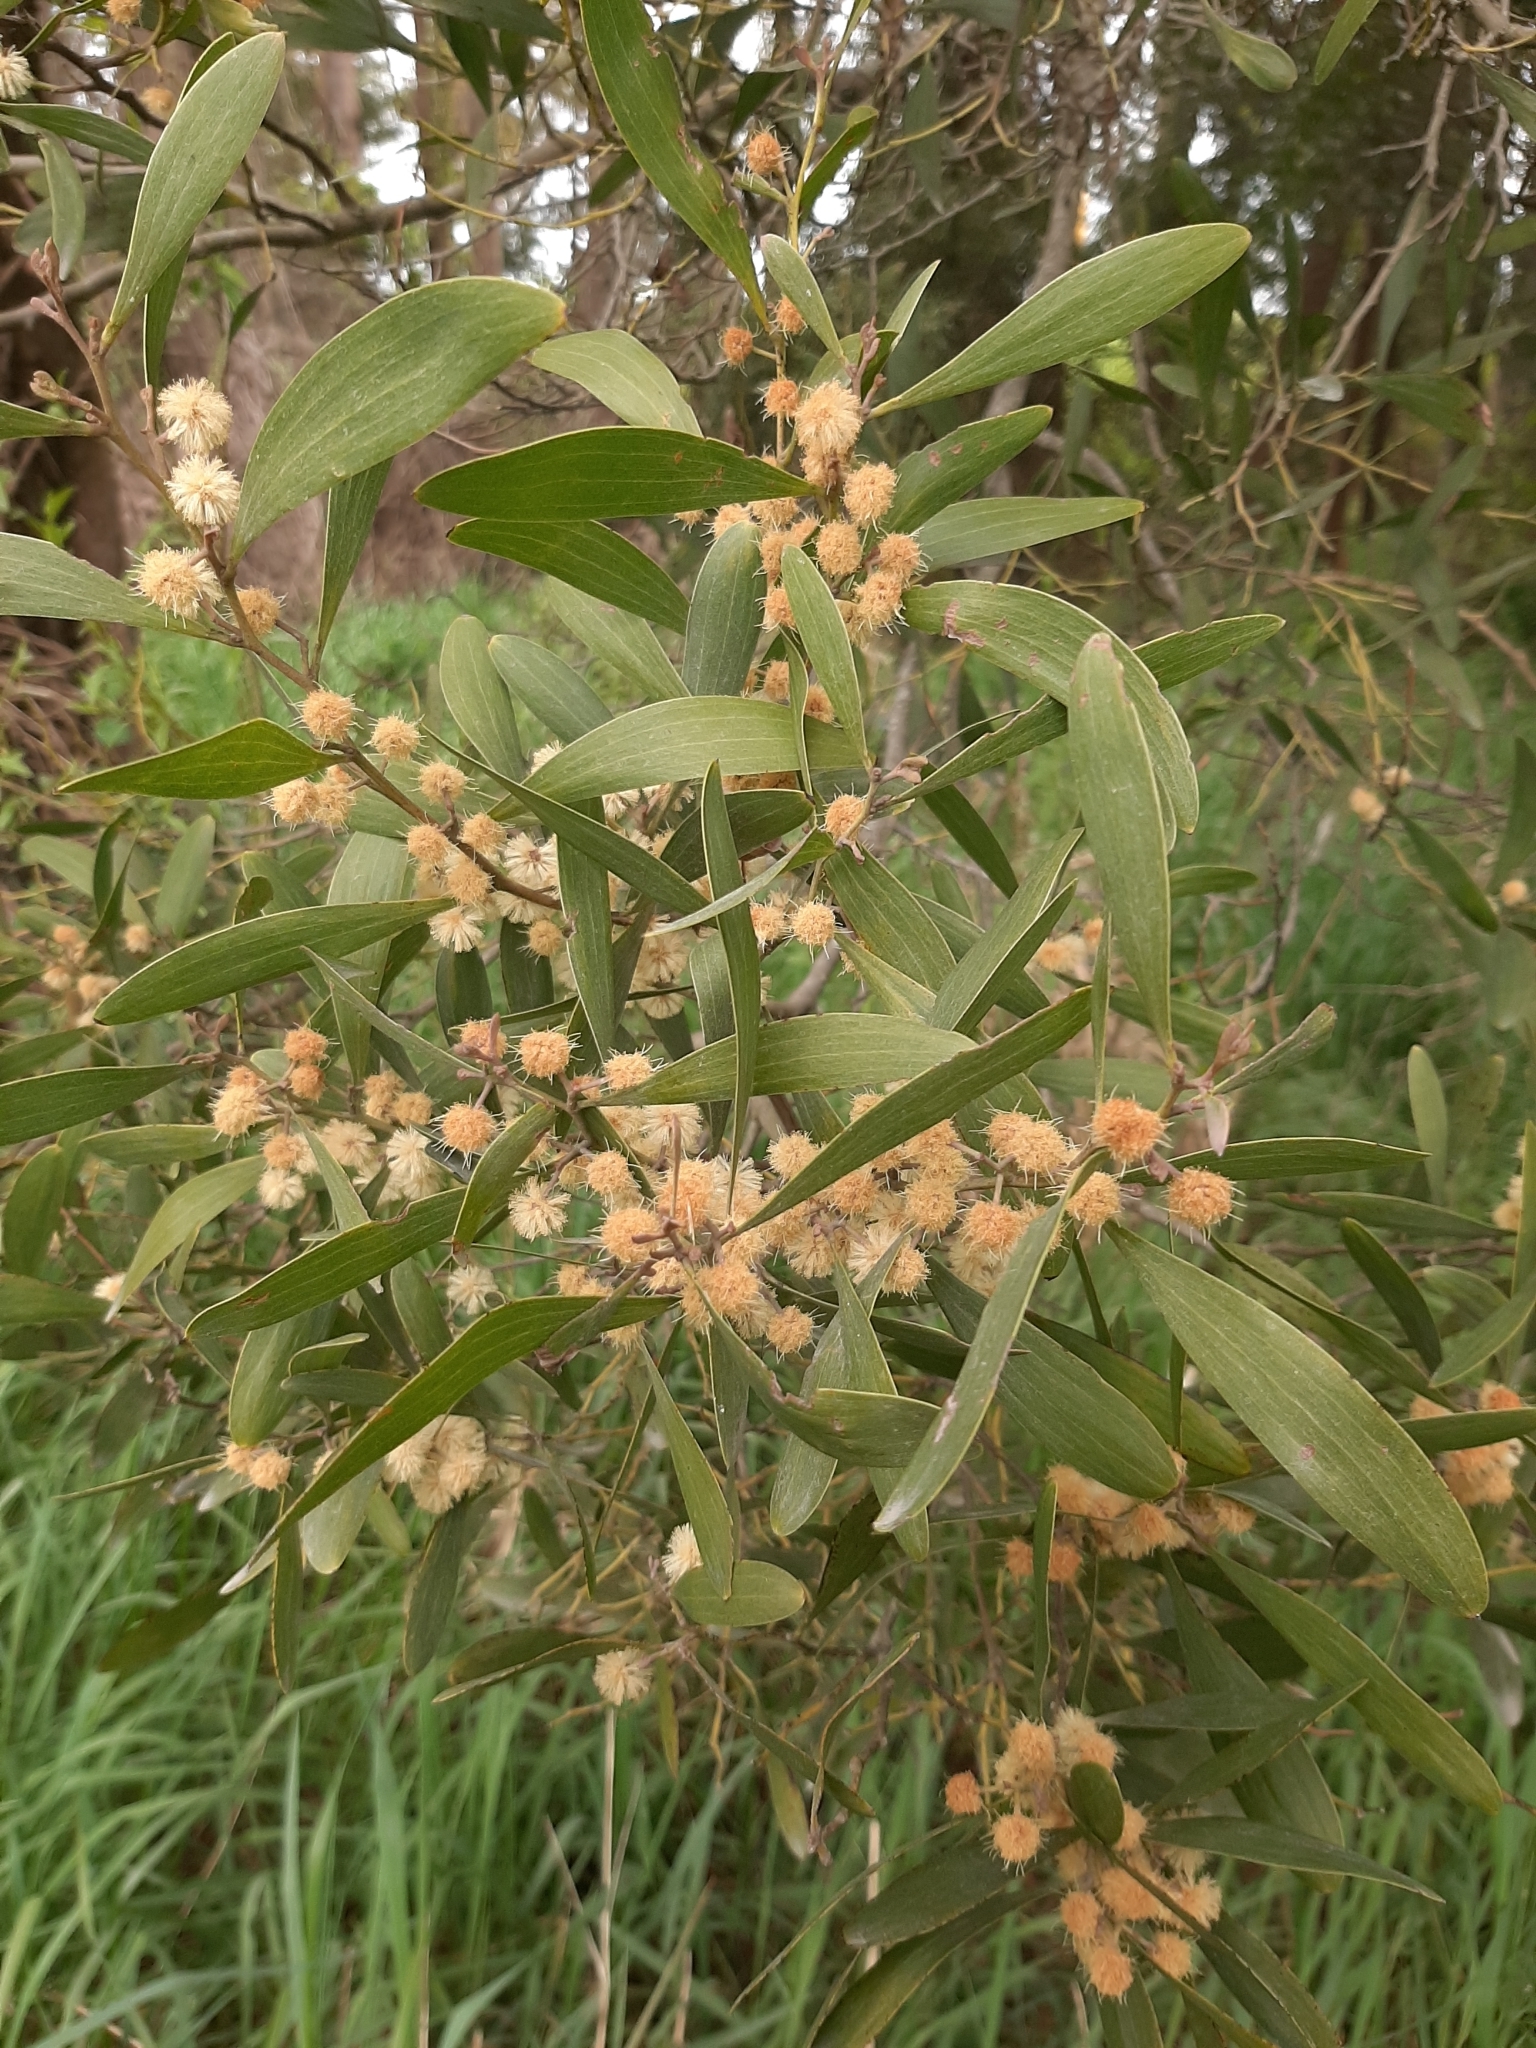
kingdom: Plantae
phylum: Tracheophyta
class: Magnoliopsida
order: Fabales
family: Fabaceae
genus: Acacia
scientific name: Acacia melanoxylon
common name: Blackwood
